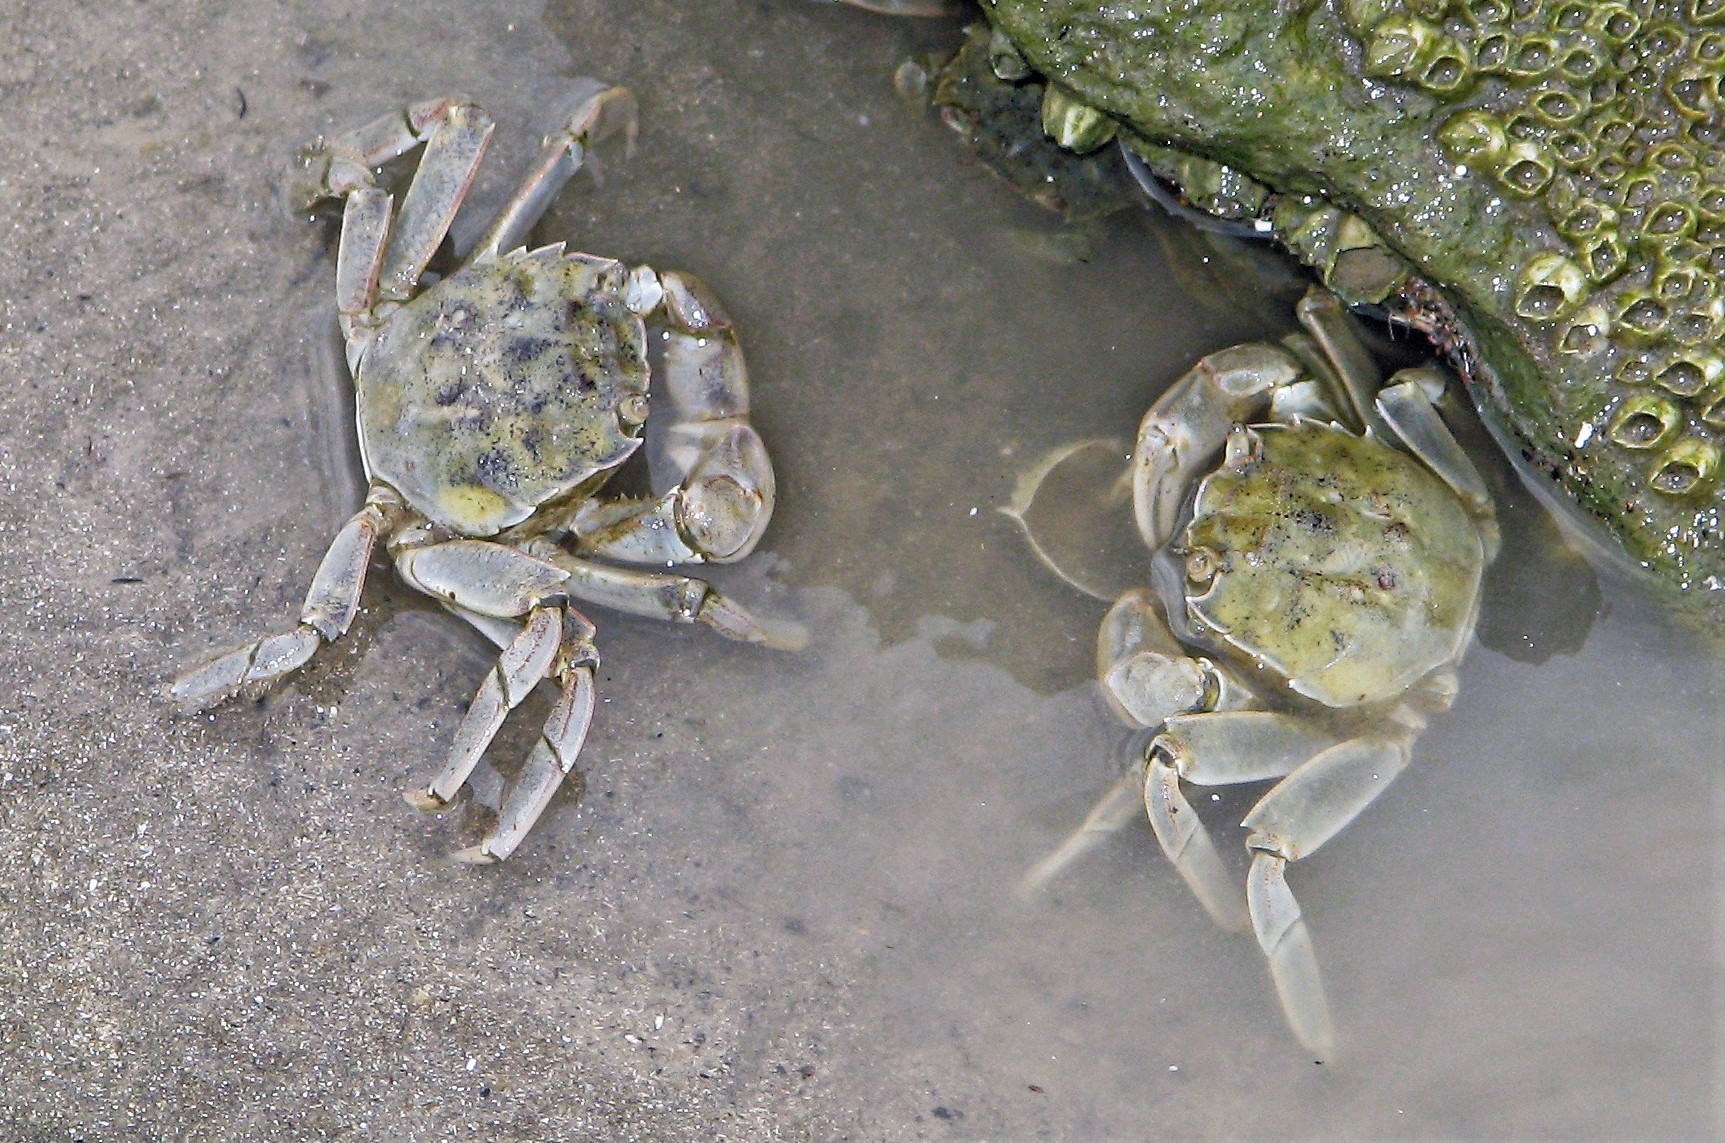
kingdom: Animalia
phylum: Arthropoda
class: Malacostraca
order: Decapoda
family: Varunidae
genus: Cyrtograpsus
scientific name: Cyrtograpsus angulatus
